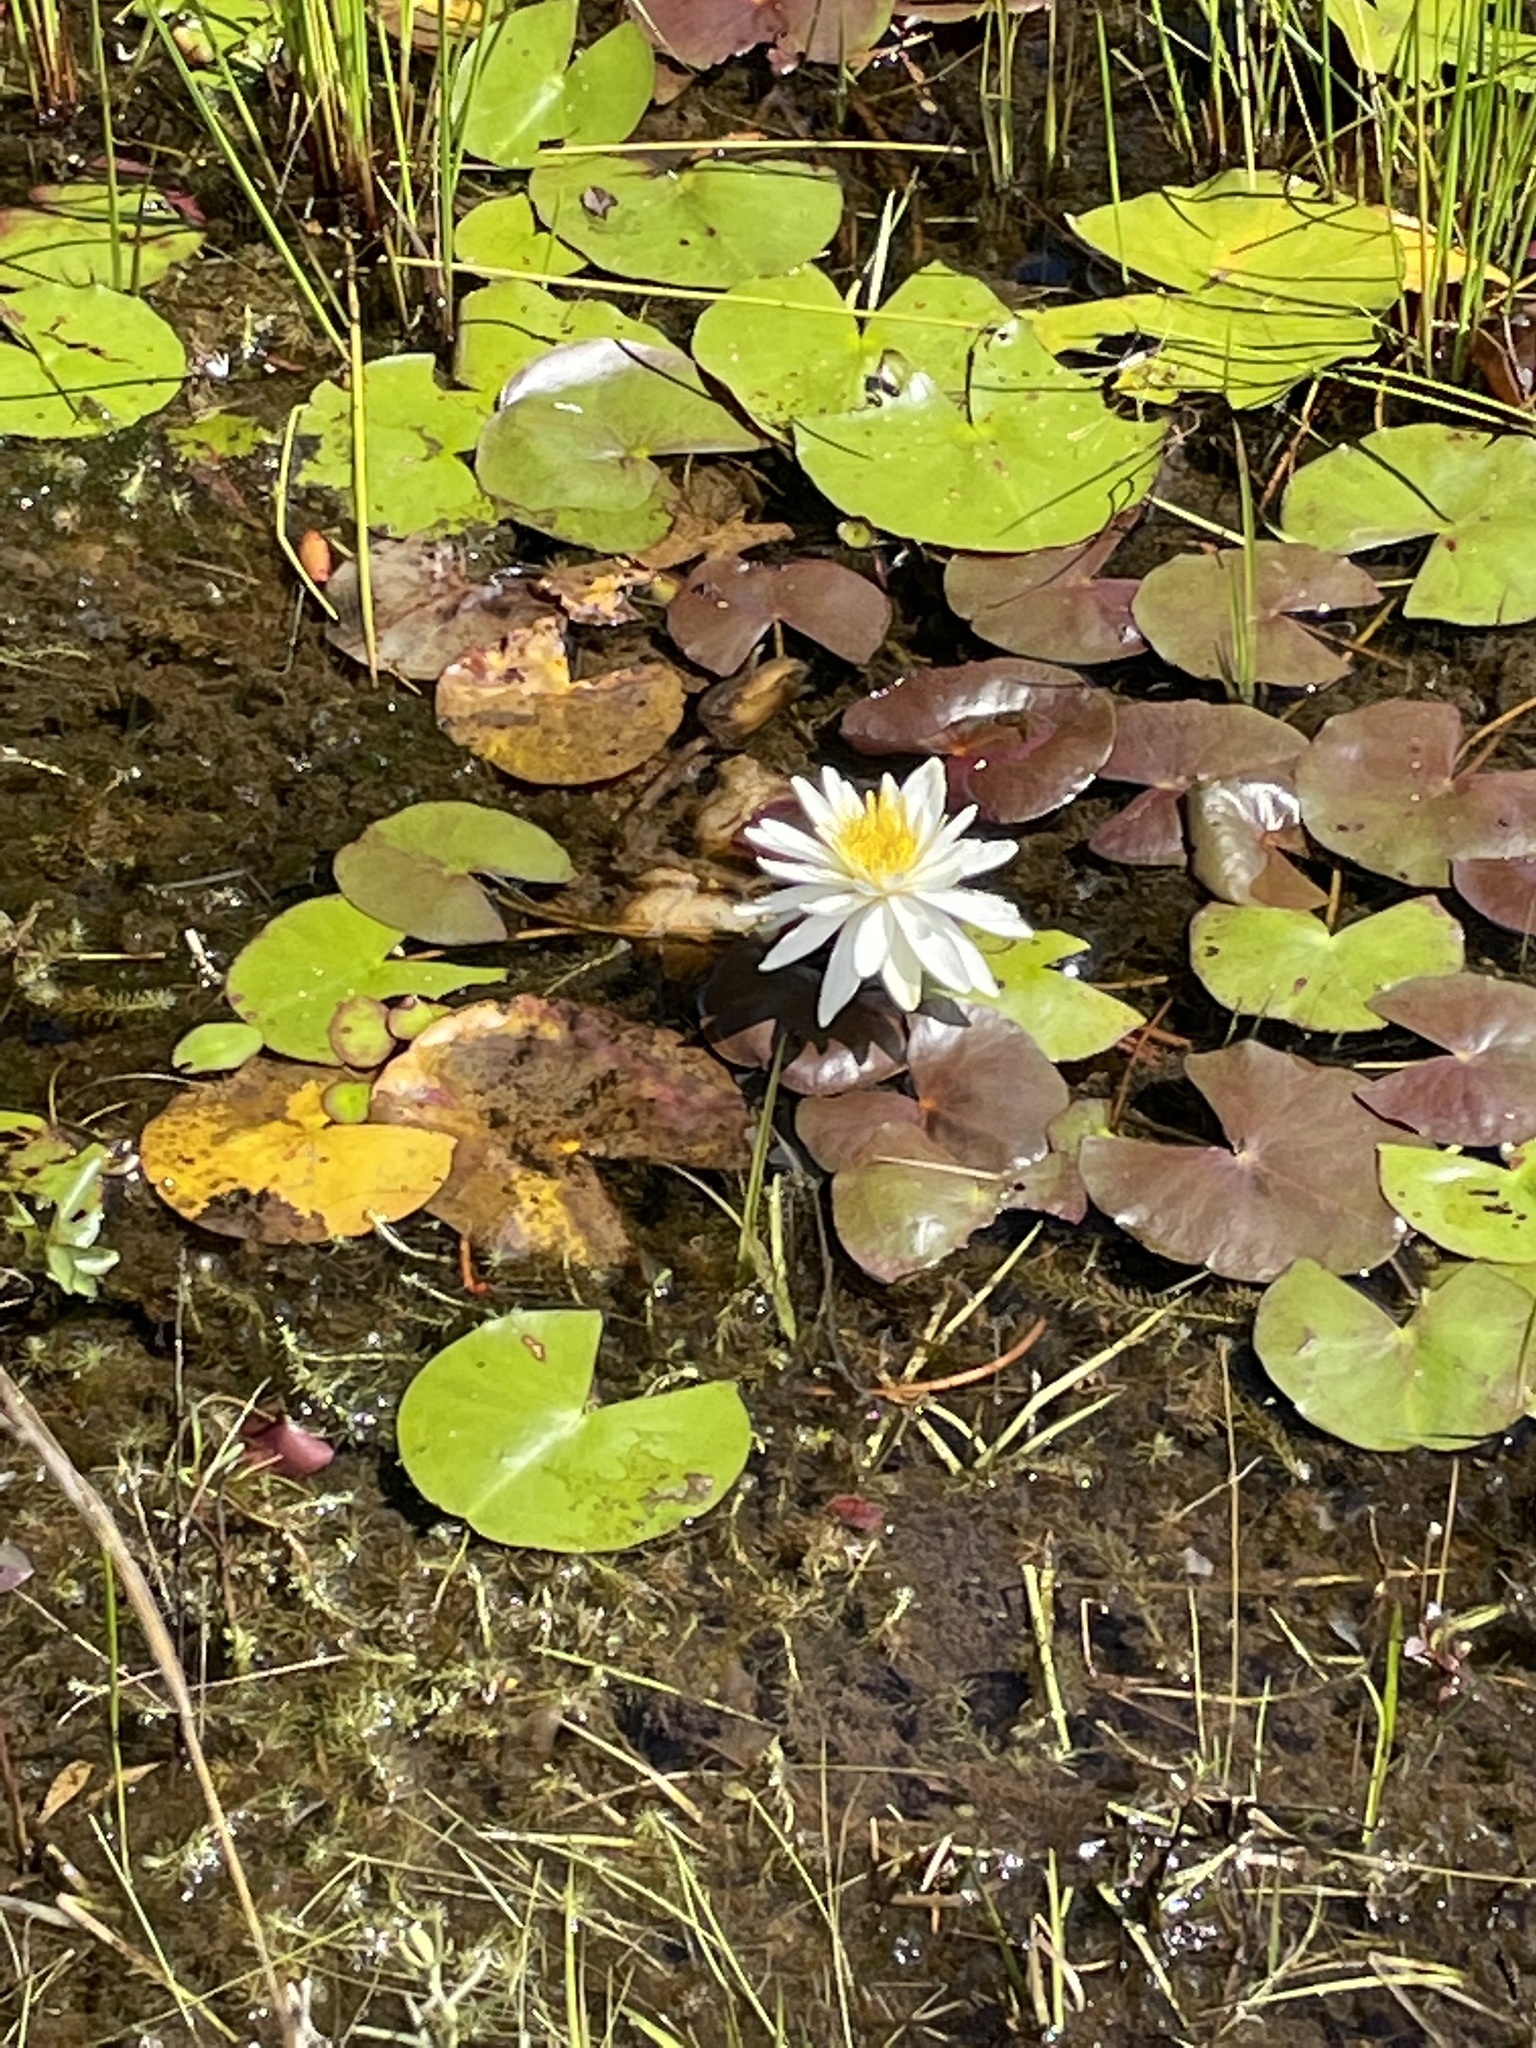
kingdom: Plantae
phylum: Tracheophyta
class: Magnoliopsida
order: Nymphaeales
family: Nymphaeaceae
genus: Nymphaea
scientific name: Nymphaea odorata
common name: Fragrant water-lily
